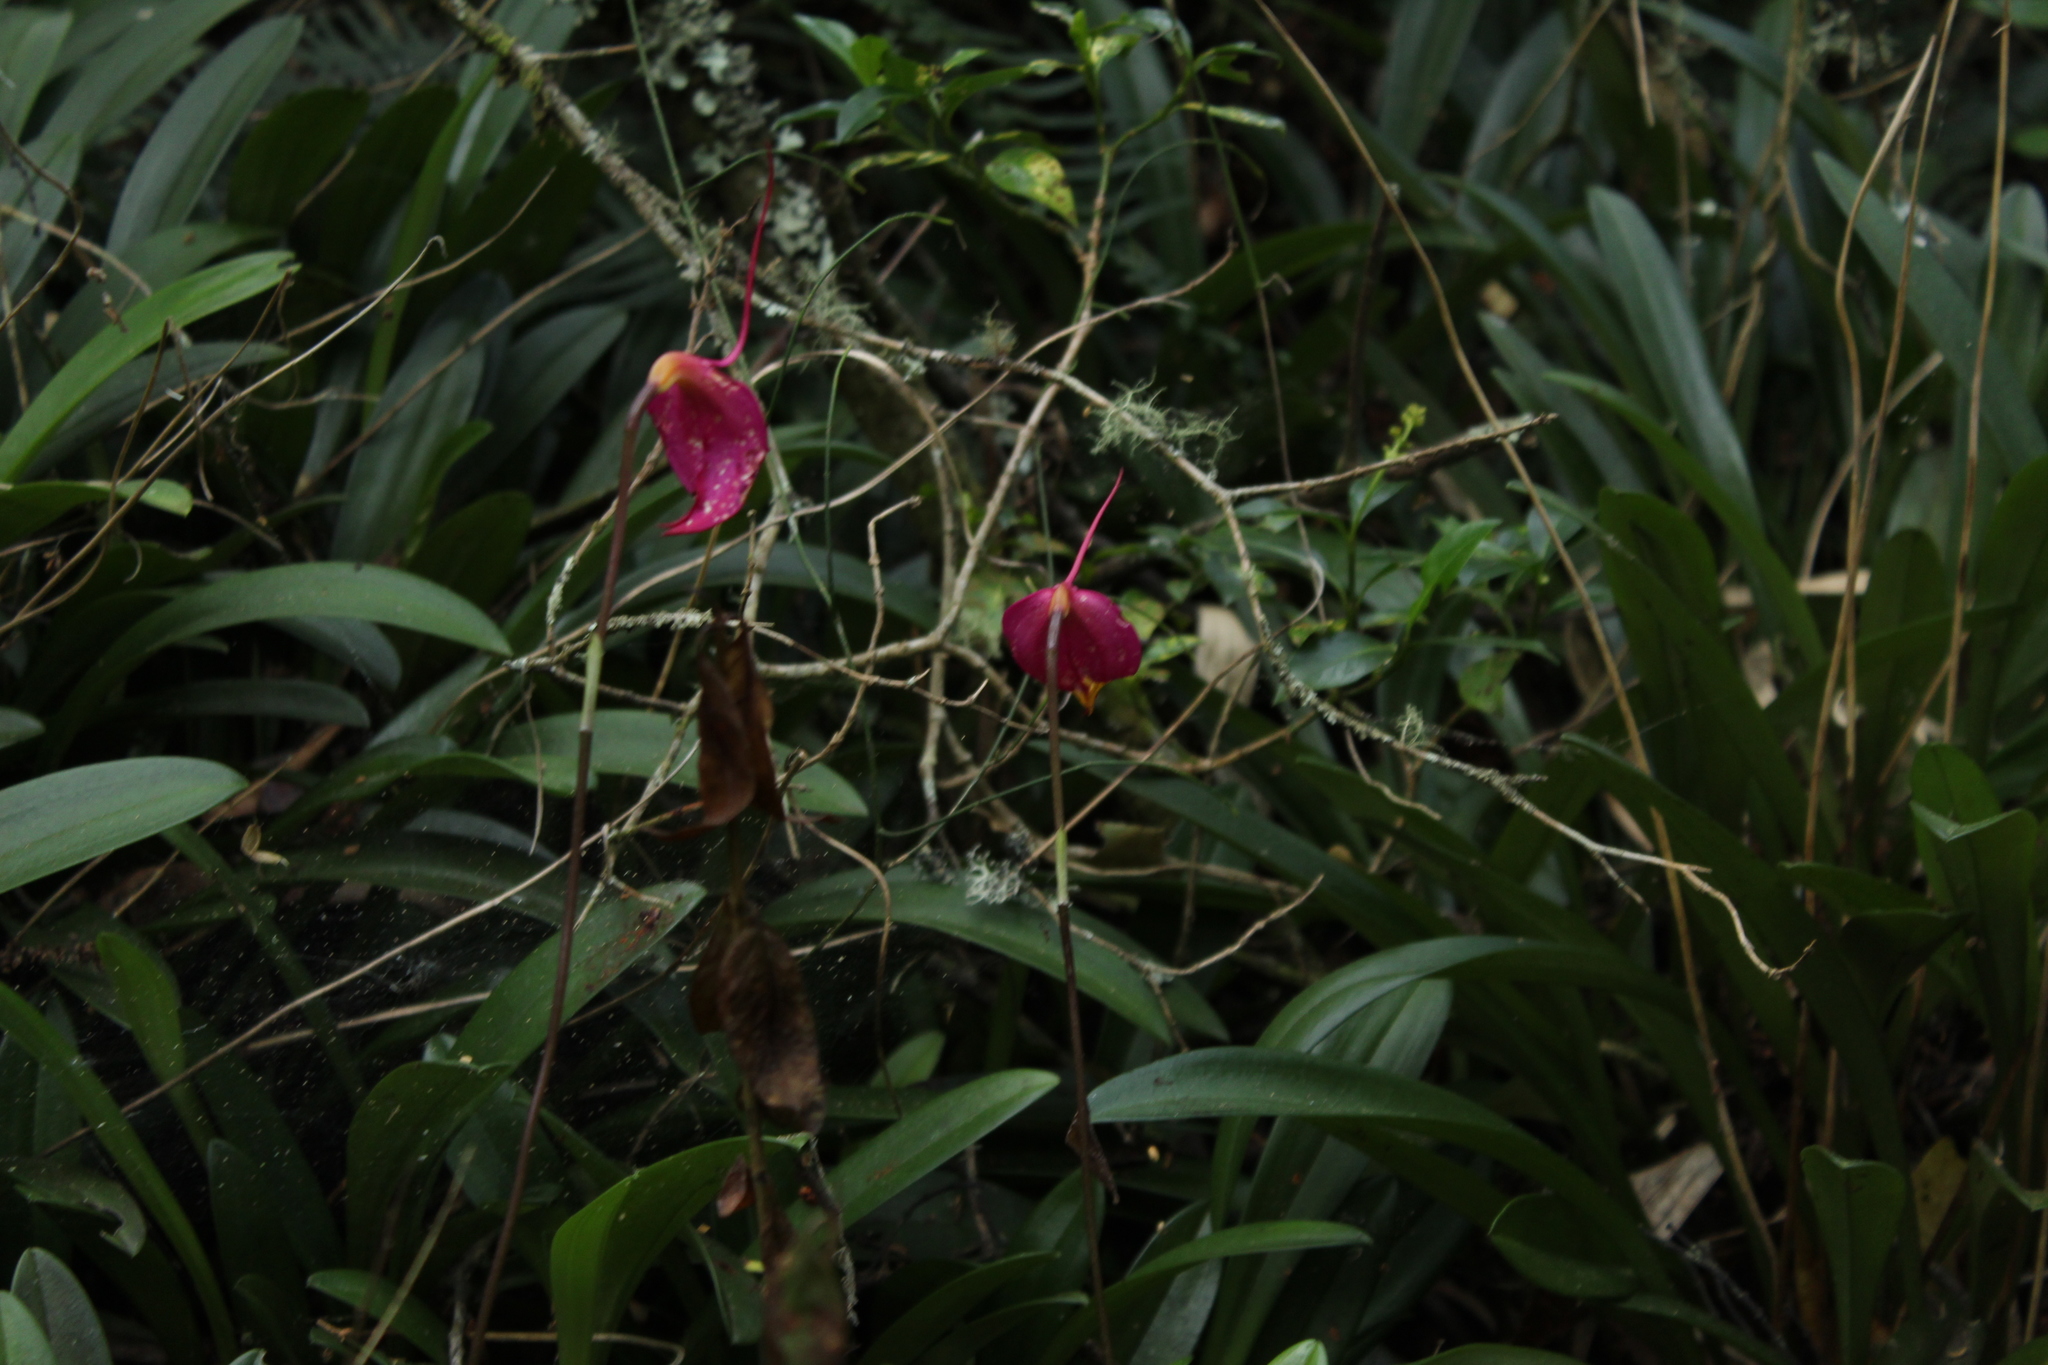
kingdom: Plantae
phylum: Tracheophyta
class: Liliopsida
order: Asparagales
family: Orchidaceae
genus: Masdevallia
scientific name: Masdevallia coccinea
